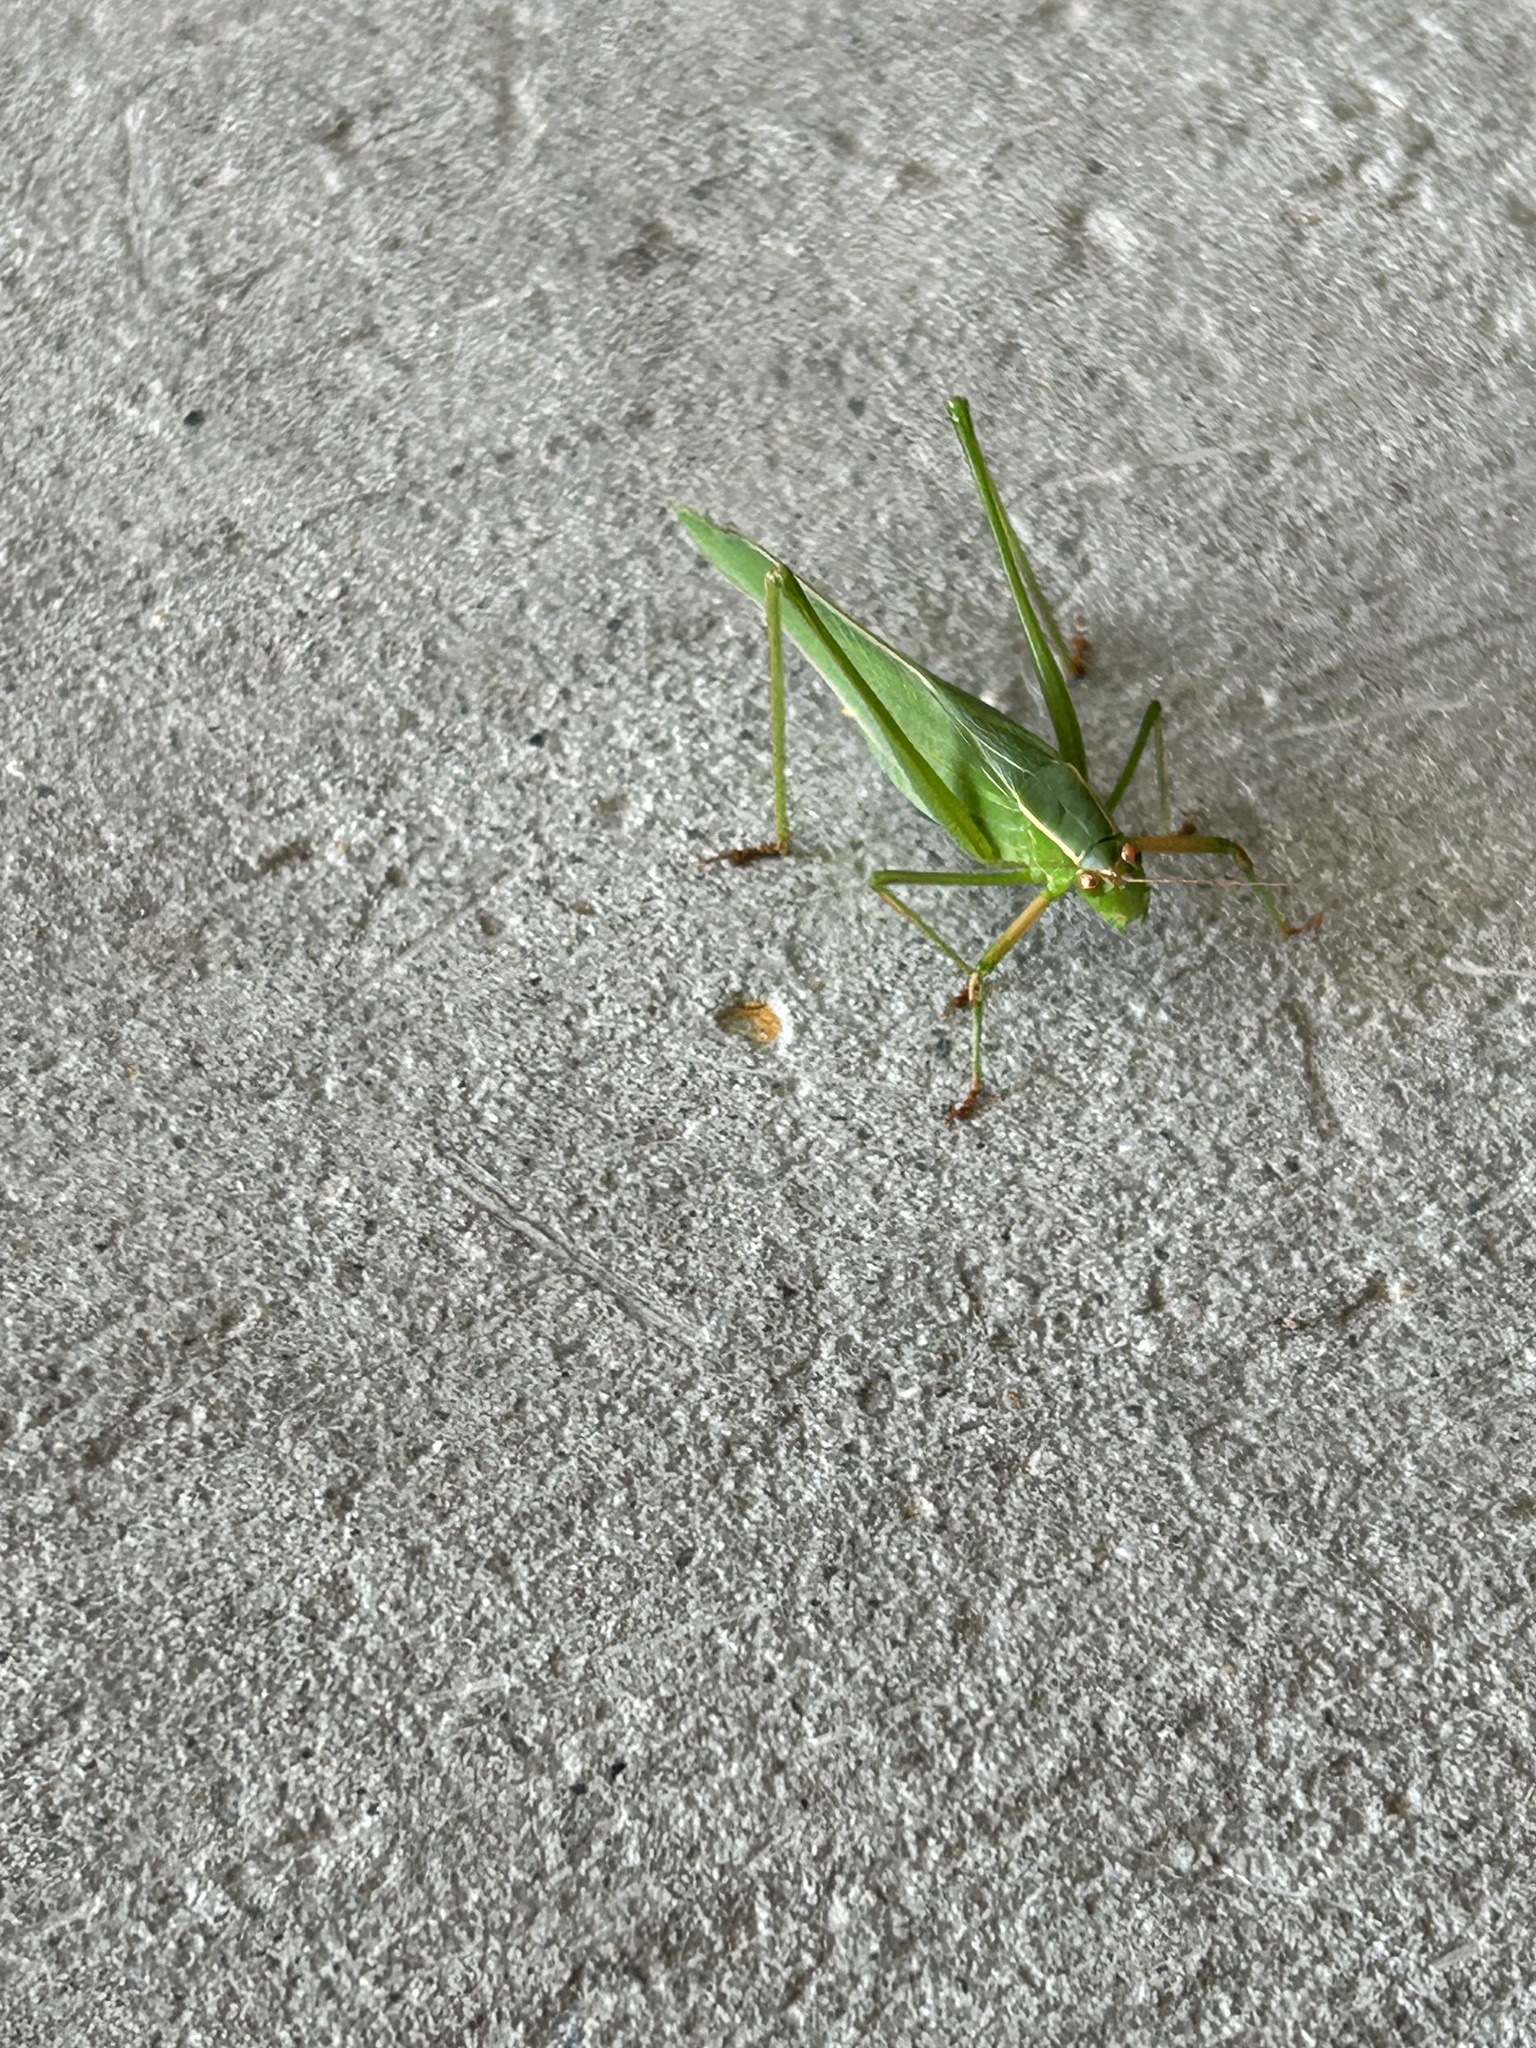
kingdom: Animalia
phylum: Arthropoda
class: Insecta
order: Orthoptera
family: Tettigoniidae
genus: Scudderia
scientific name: Scudderia furcata
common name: Fork-tailed bush katydid
